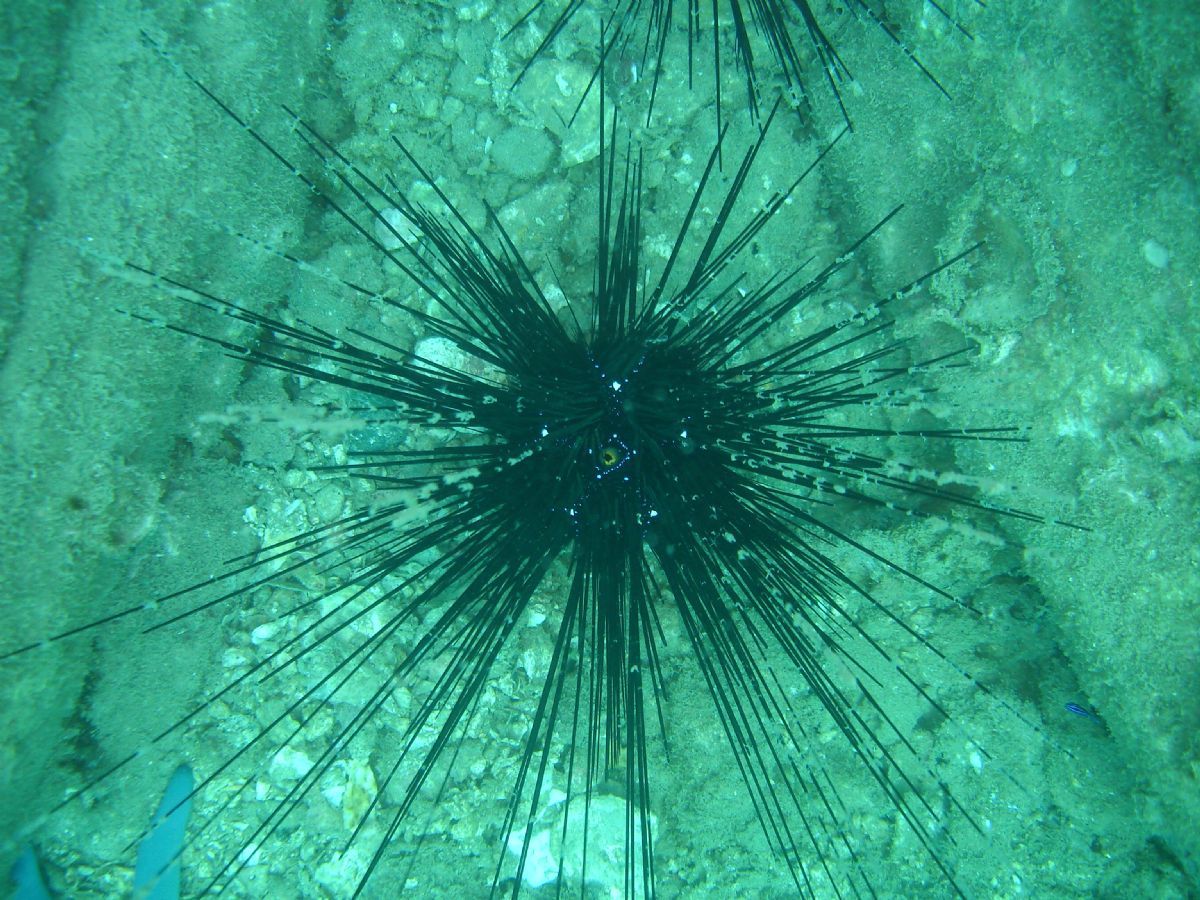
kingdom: Animalia
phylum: Echinodermata
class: Echinoidea
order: Diadematoida
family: Diadematidae
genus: Diadema
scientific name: Diadema setosum
